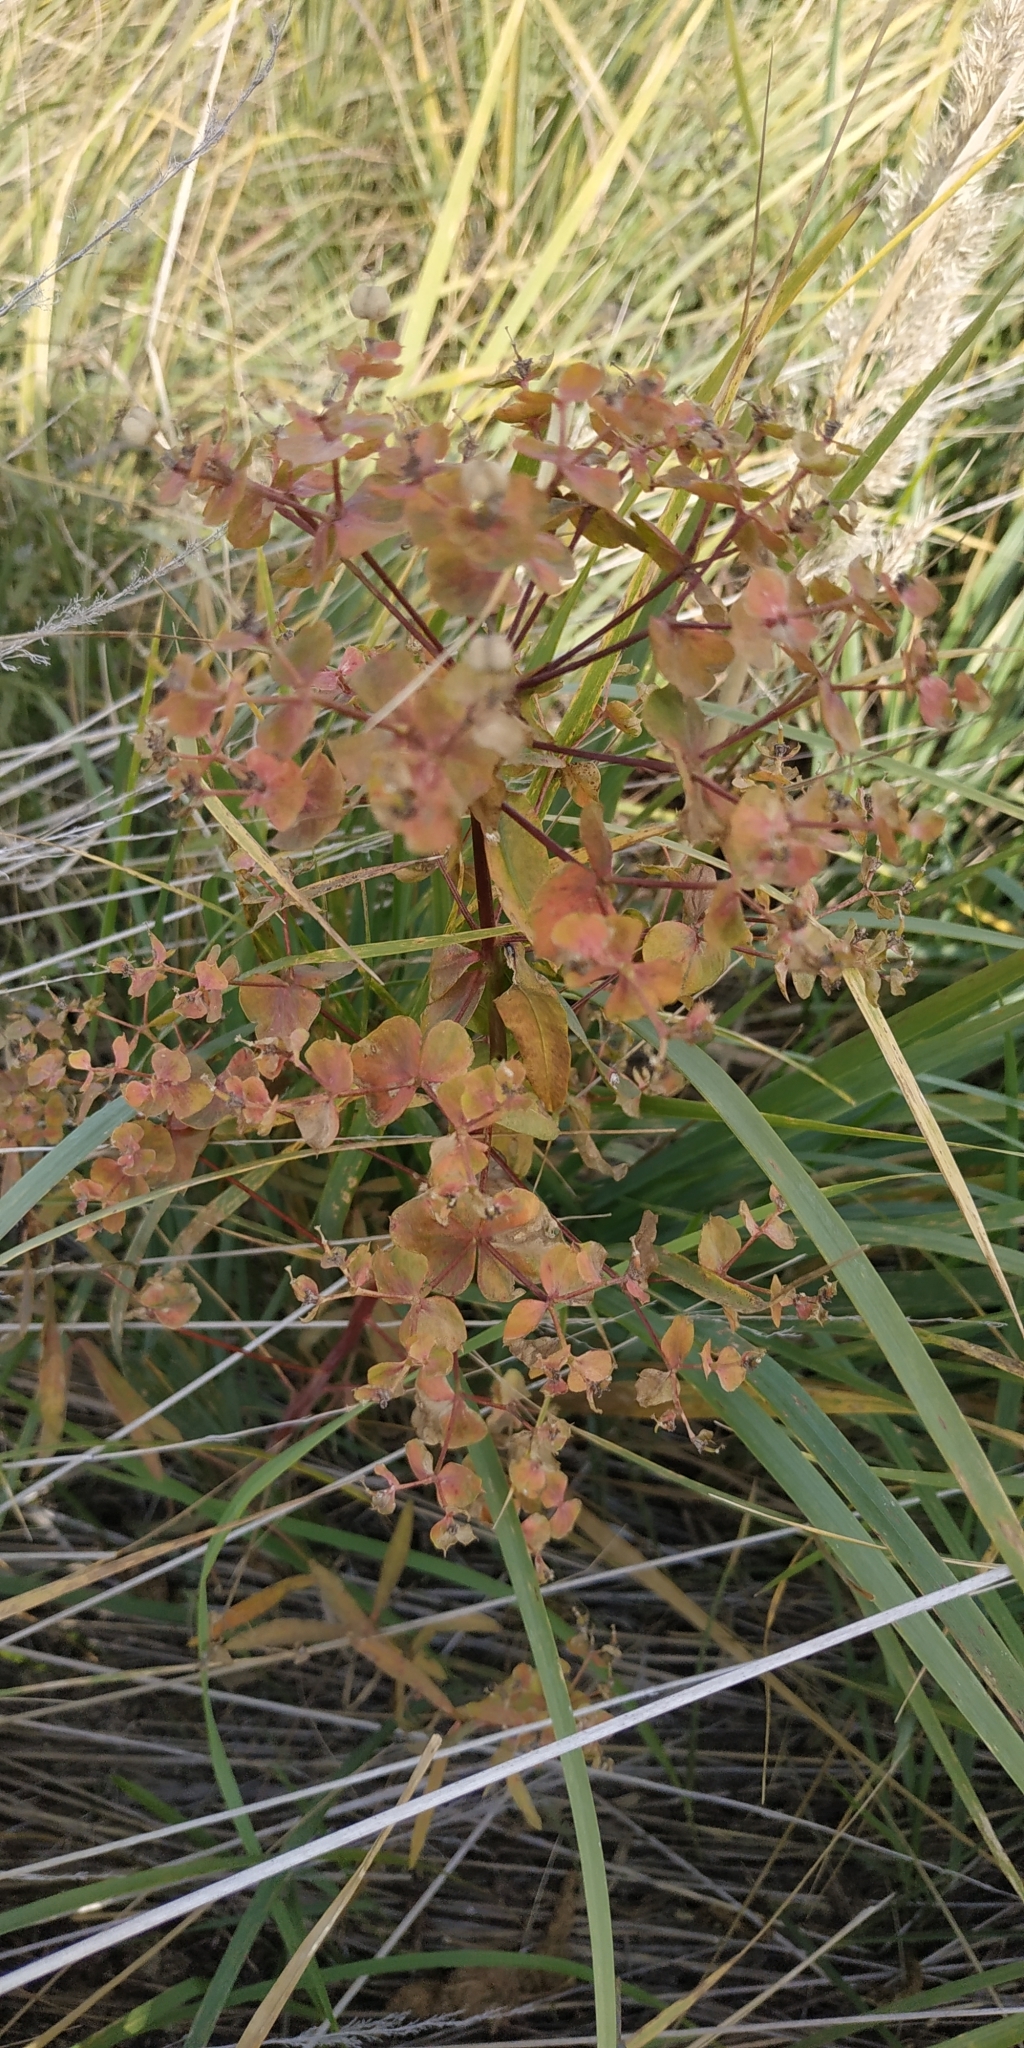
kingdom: Plantae
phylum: Tracheophyta
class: Magnoliopsida
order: Malpighiales
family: Euphorbiaceae
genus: Euphorbia
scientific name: Euphorbia virgata
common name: Leafy spurge
